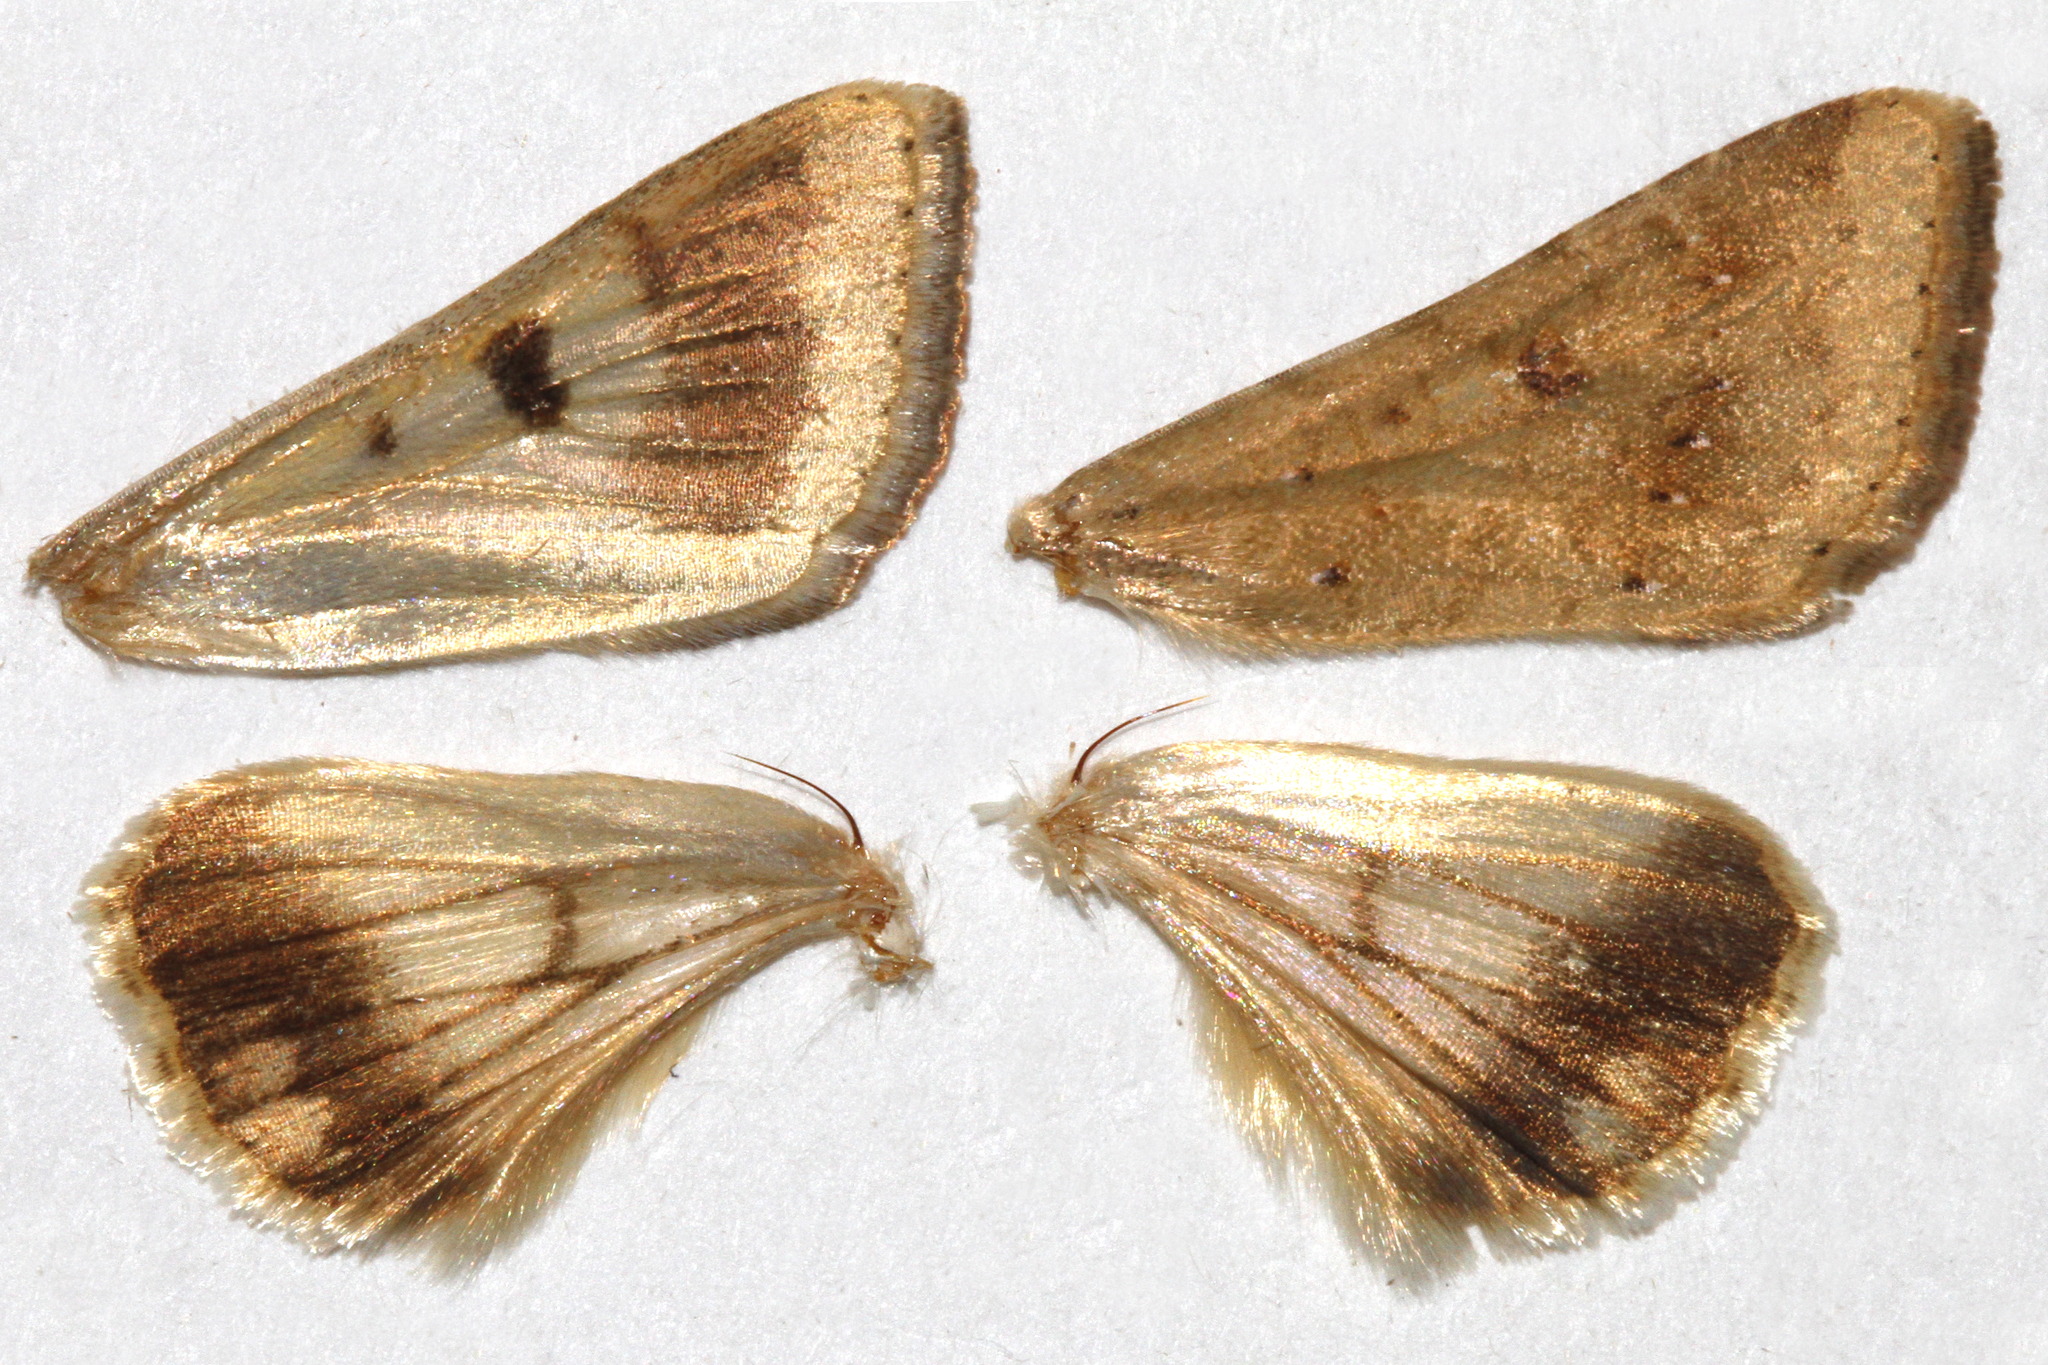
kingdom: Animalia
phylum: Arthropoda
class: Insecta
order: Lepidoptera
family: Noctuidae
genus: Helicoverpa
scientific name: Helicoverpa zea
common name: Bollworm
